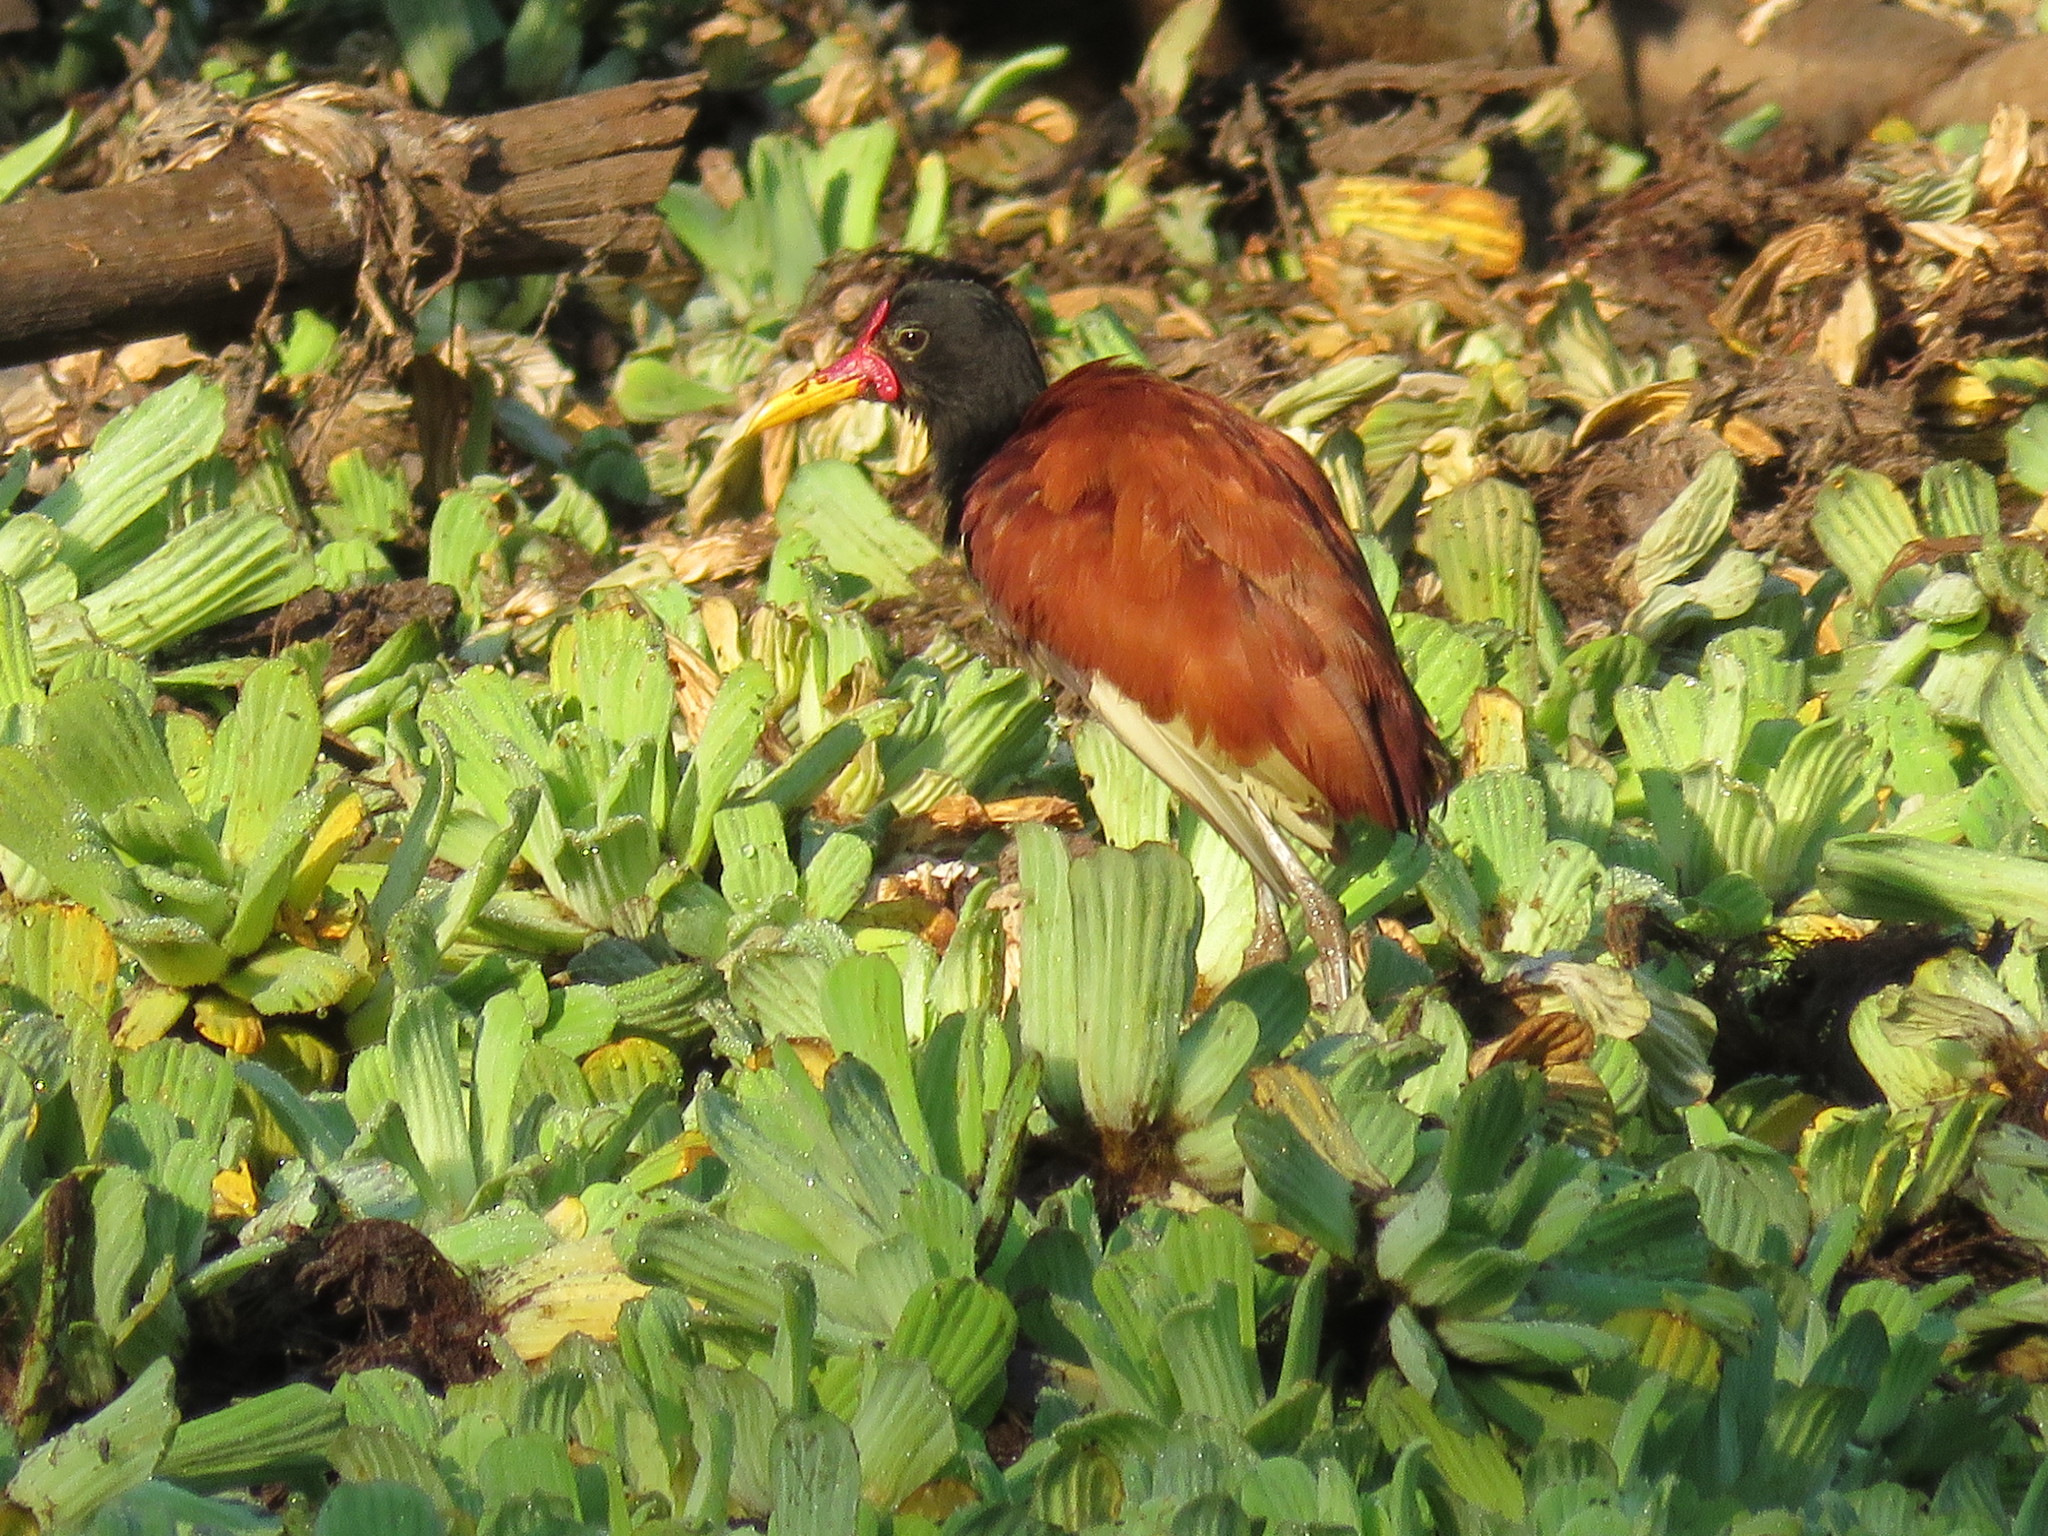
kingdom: Animalia
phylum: Chordata
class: Aves
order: Charadriiformes
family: Jacanidae
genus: Jacana
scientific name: Jacana jacana
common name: Wattled jacana
